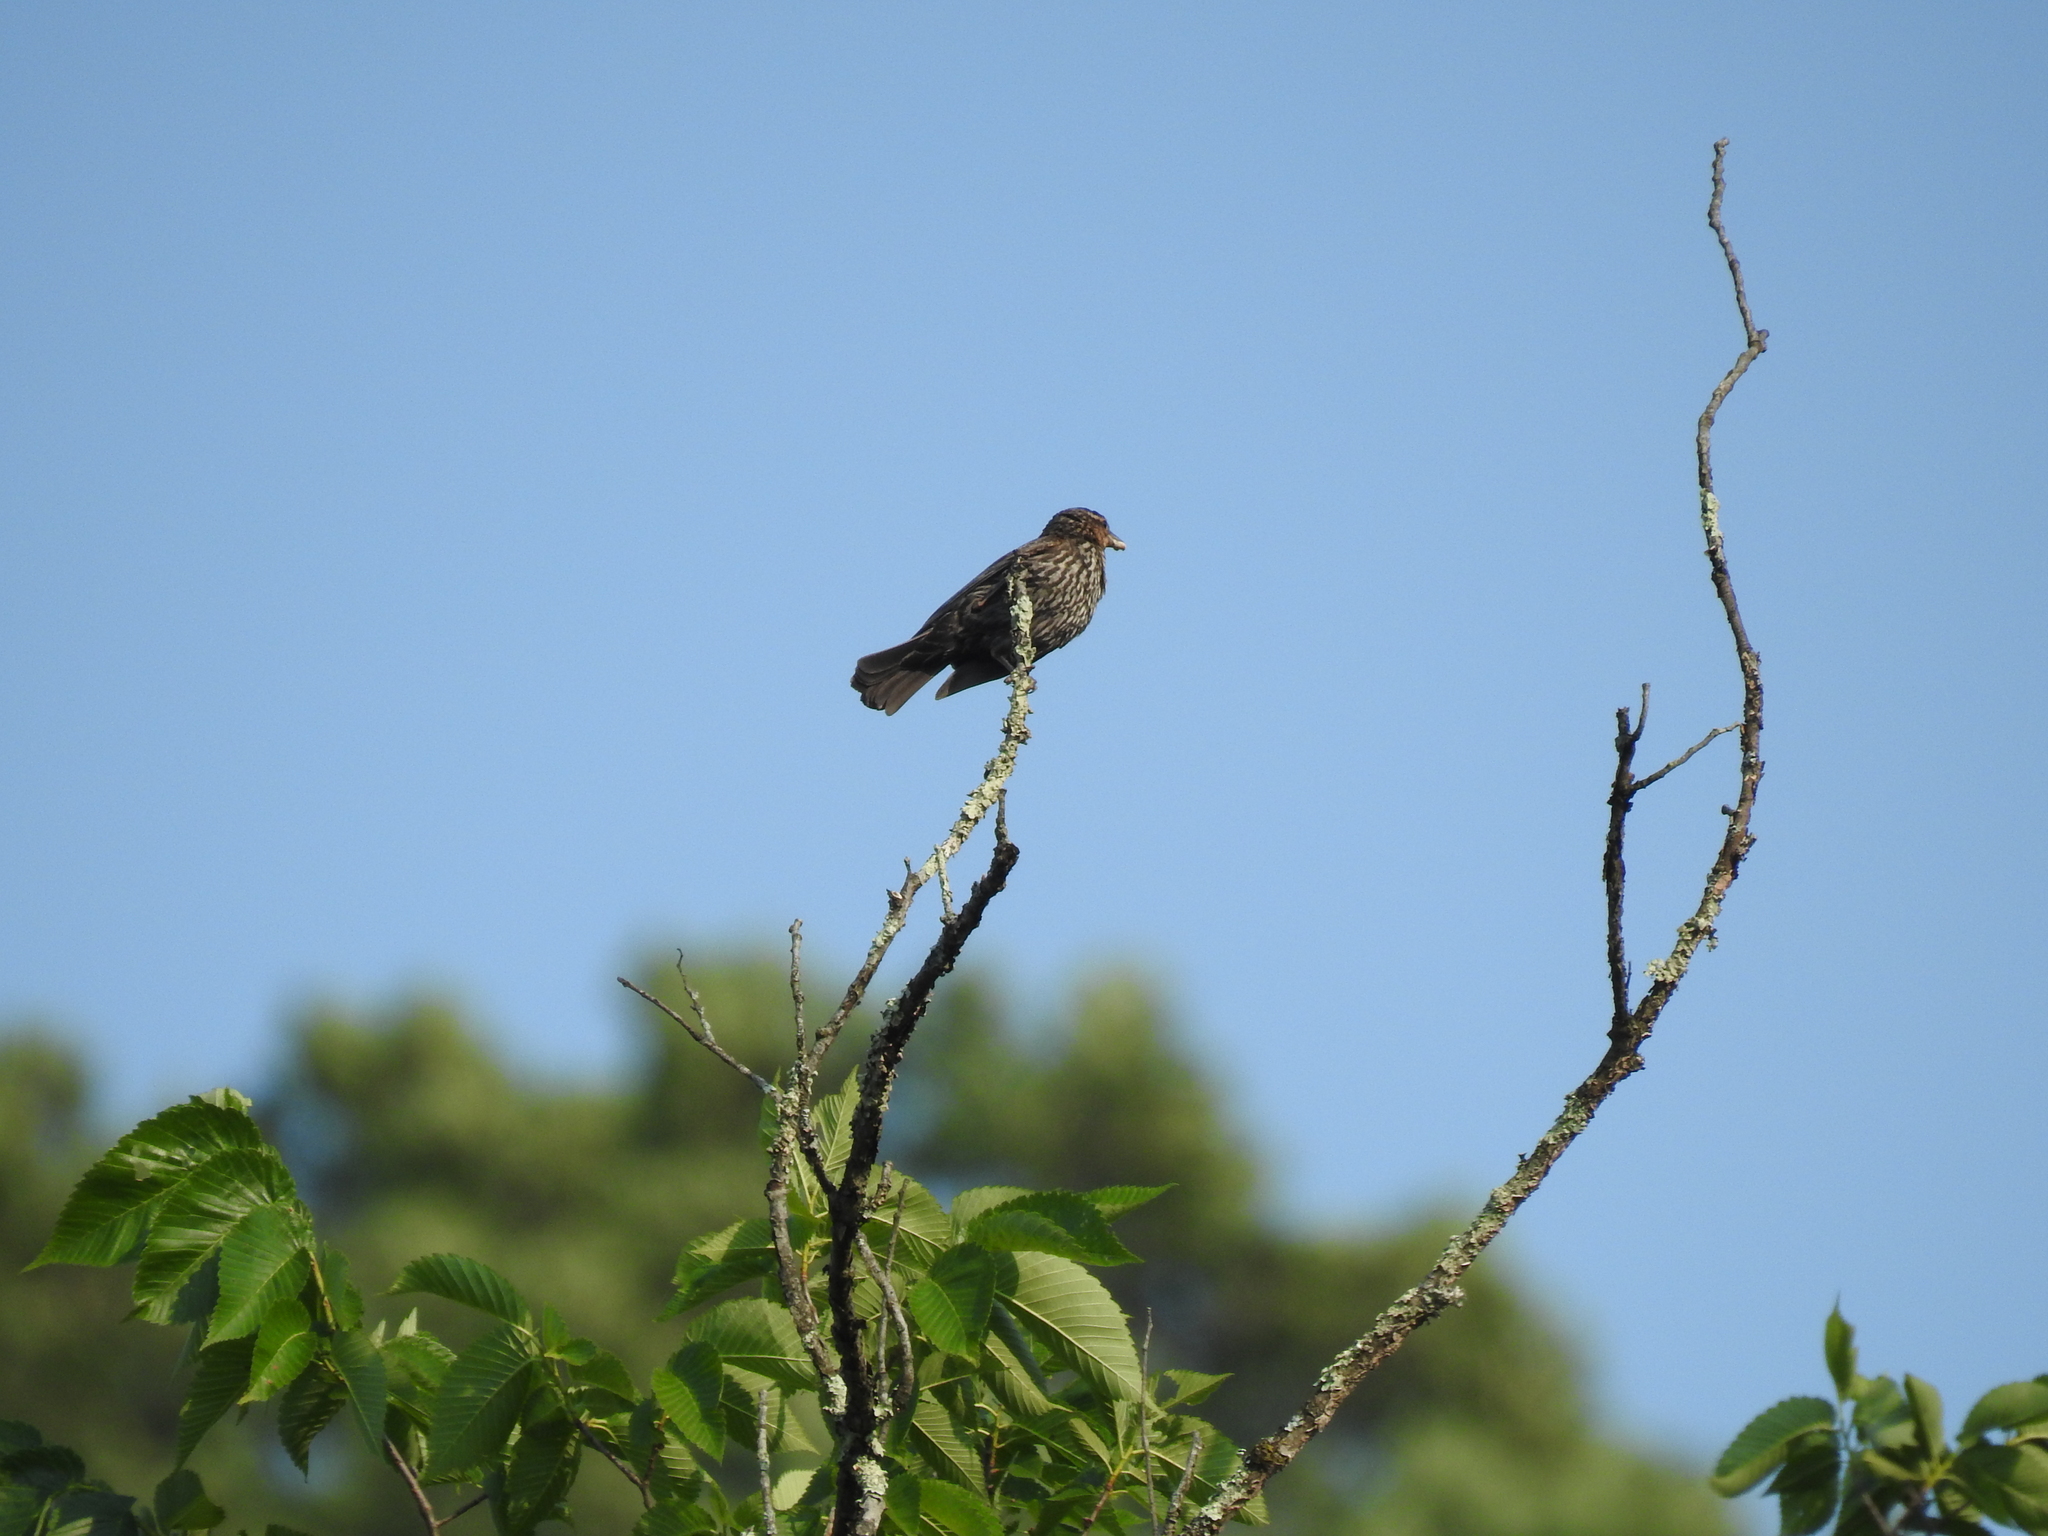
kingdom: Animalia
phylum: Chordata
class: Aves
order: Passeriformes
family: Icteridae
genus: Agelaius
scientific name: Agelaius phoeniceus
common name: Red-winged blackbird
